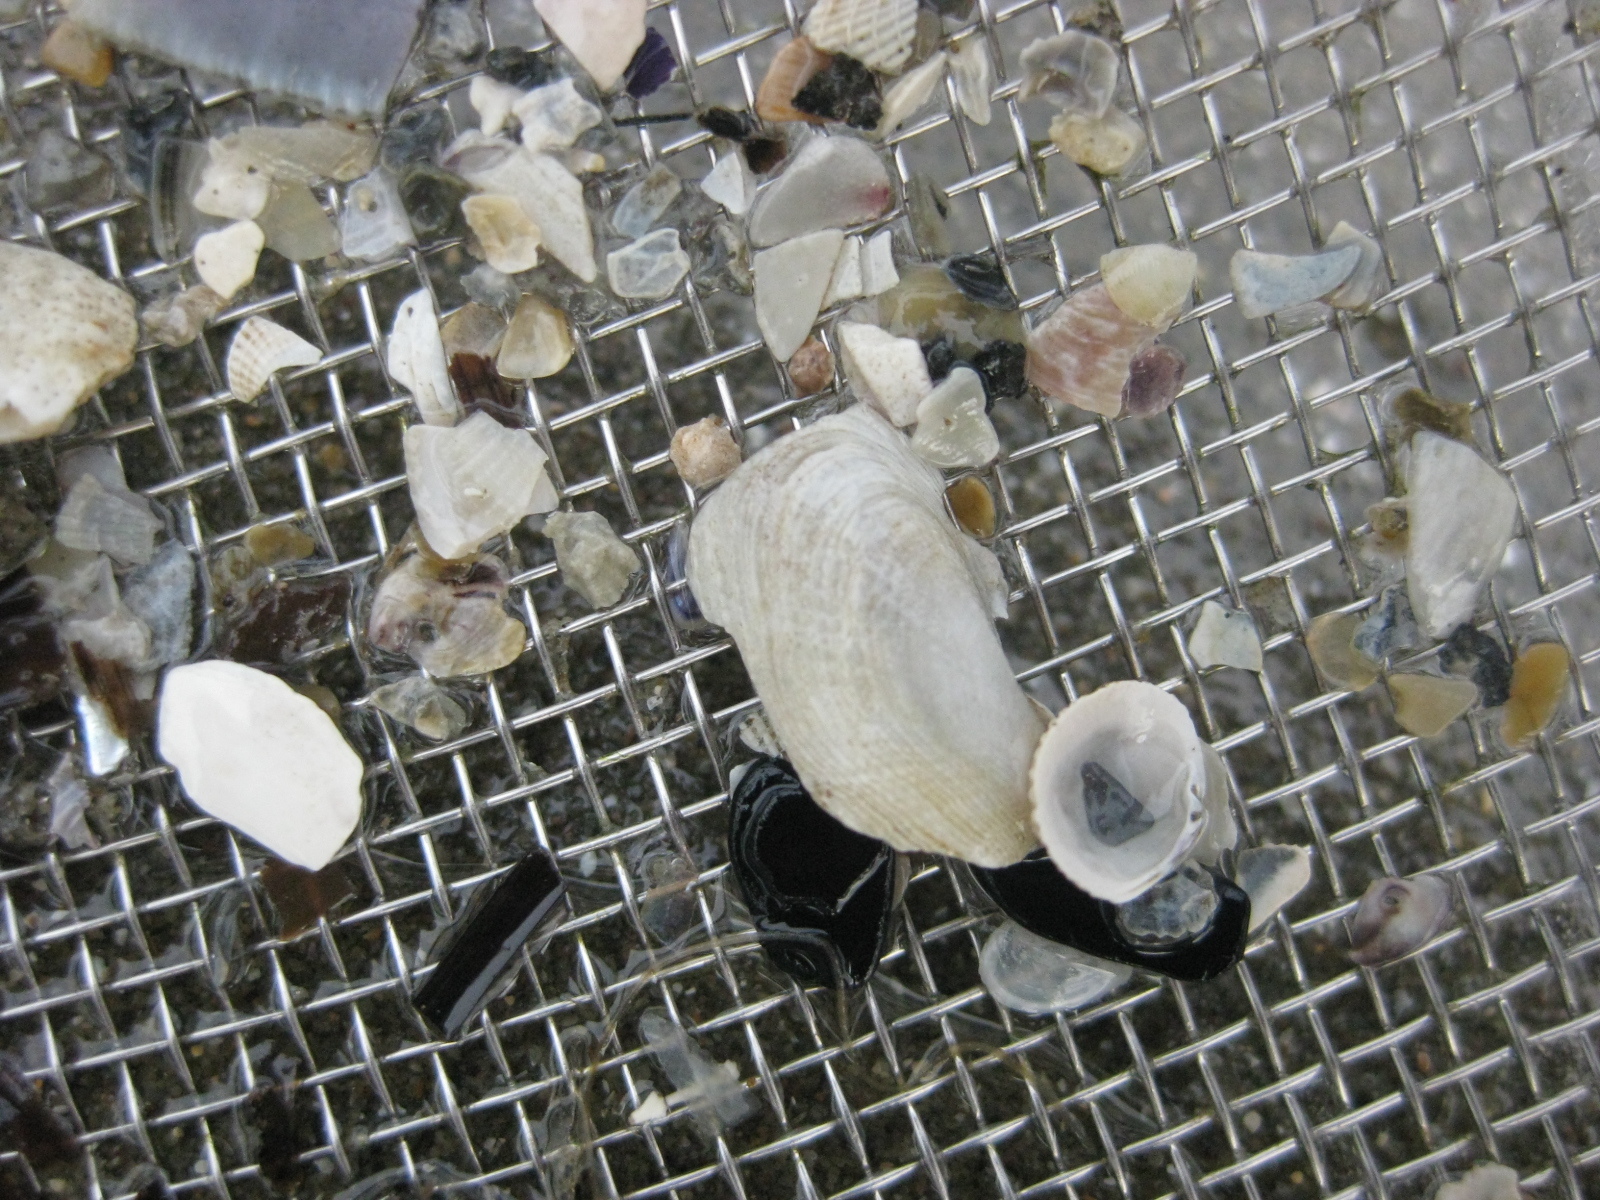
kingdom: Animalia
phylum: Mollusca
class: Bivalvia
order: Myida
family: Pholadidae
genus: Barnea
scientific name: Barnea similis
